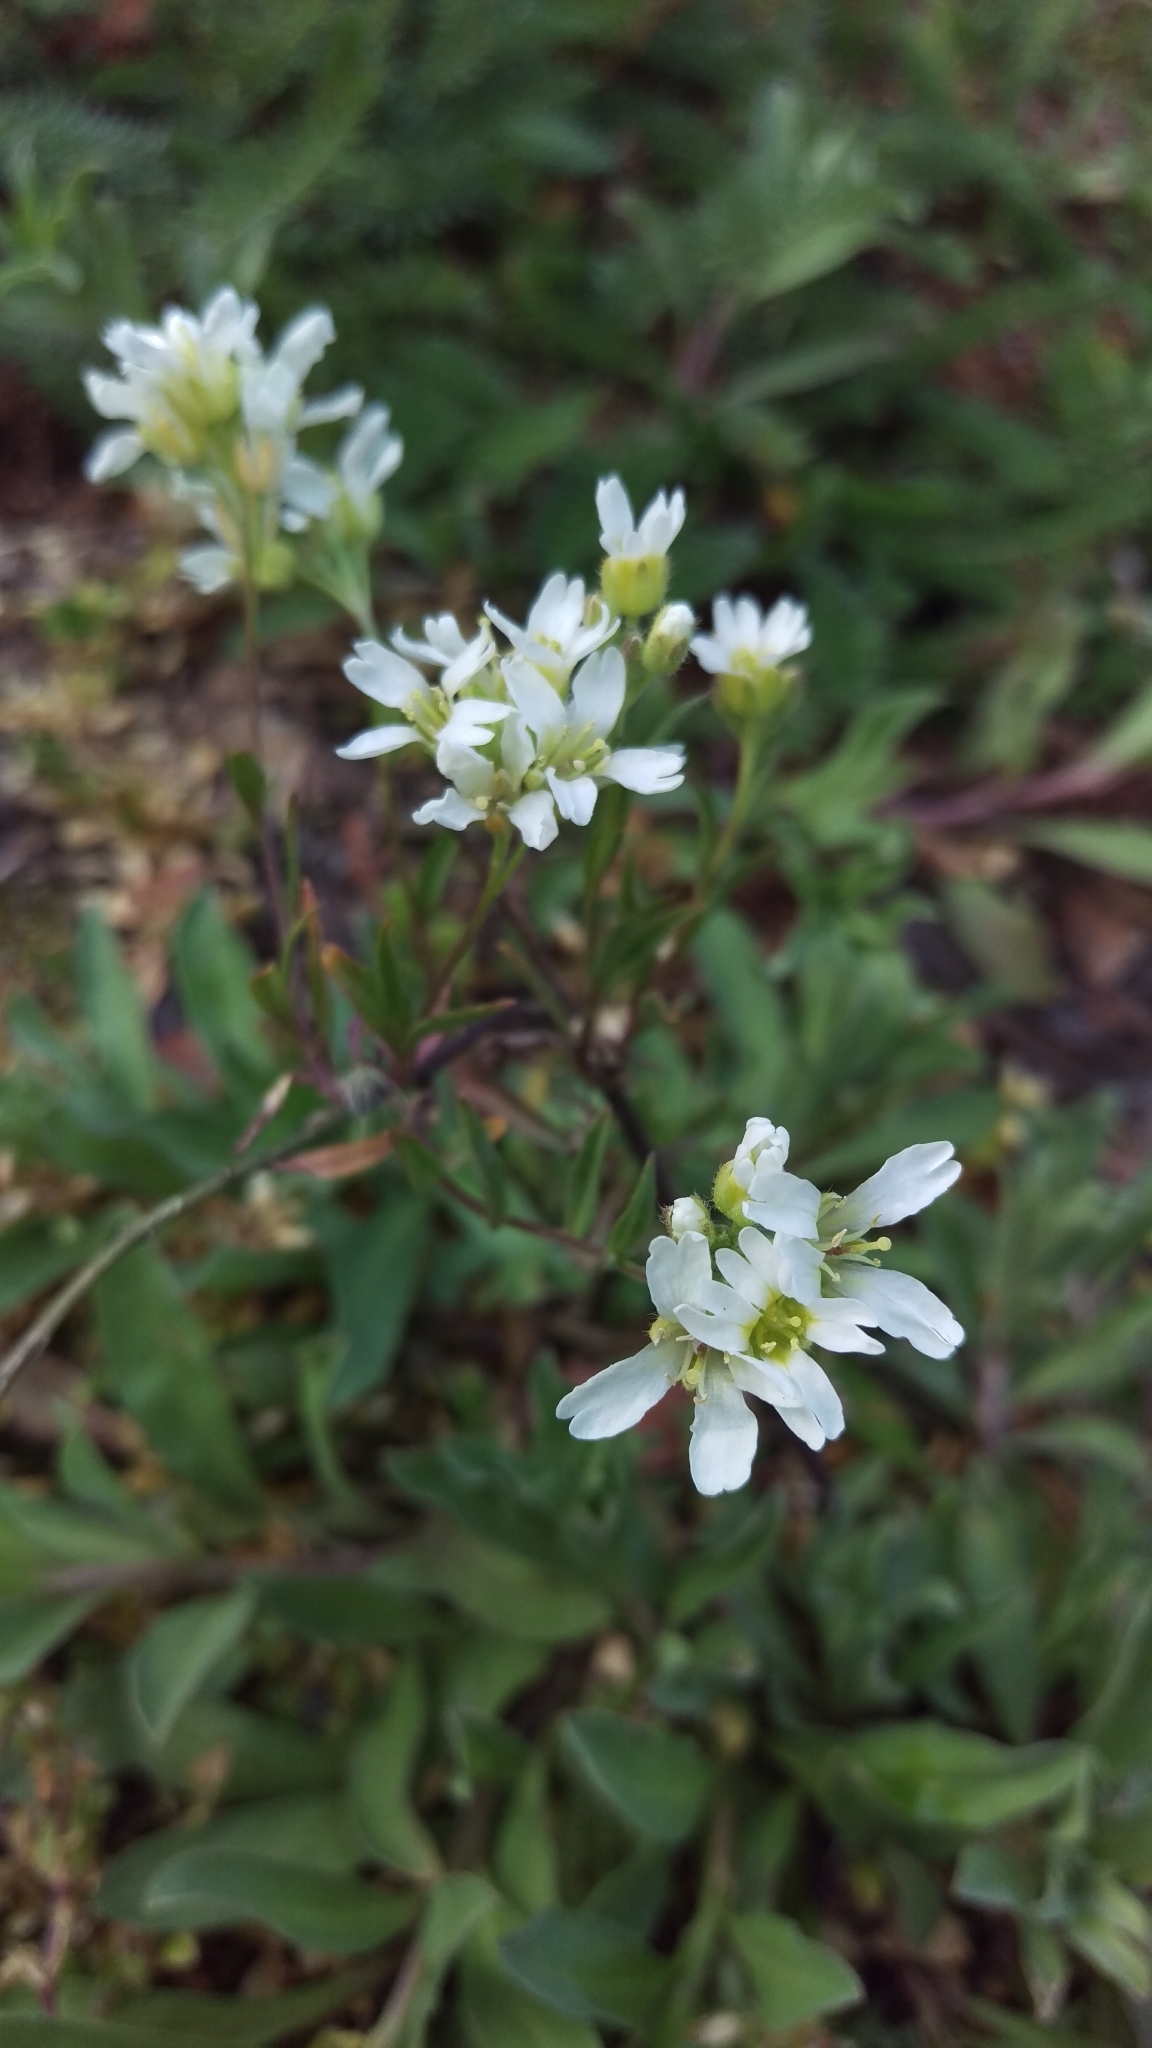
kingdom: Plantae
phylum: Tracheophyta
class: Magnoliopsida
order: Brassicales
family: Brassicaceae
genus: Berteroa
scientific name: Berteroa incana
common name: Hoary alison
